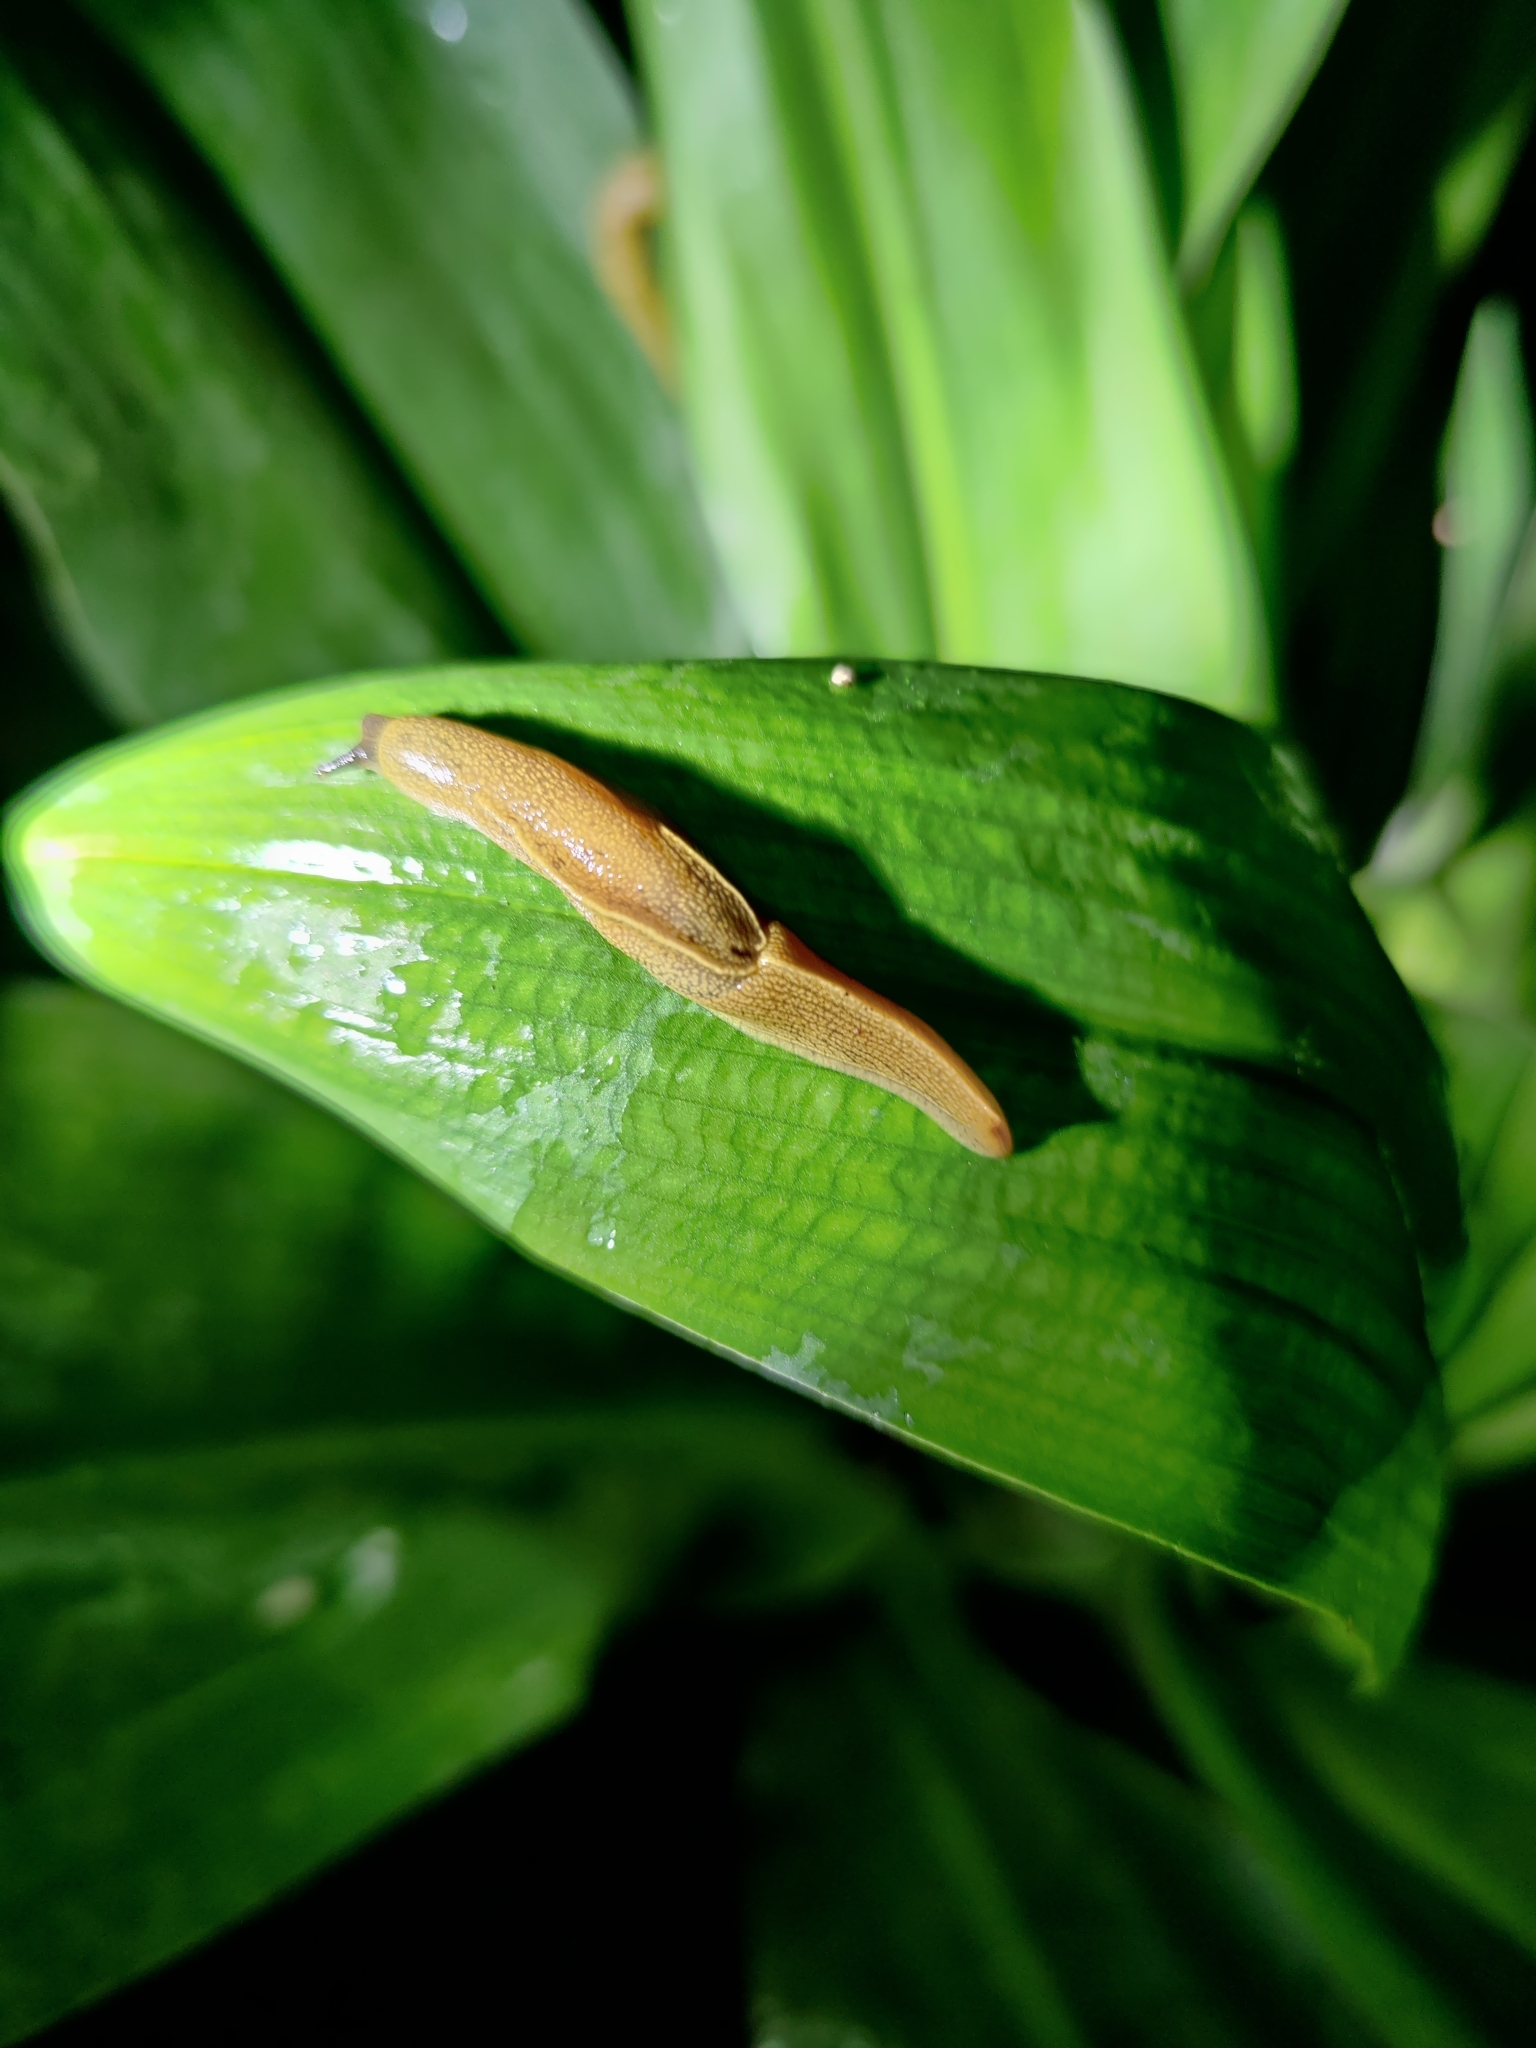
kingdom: Animalia
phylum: Mollusca
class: Gastropoda
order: Stylommatophora
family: Ariophantidae
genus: Mariaella
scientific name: Mariaella dussumieri
